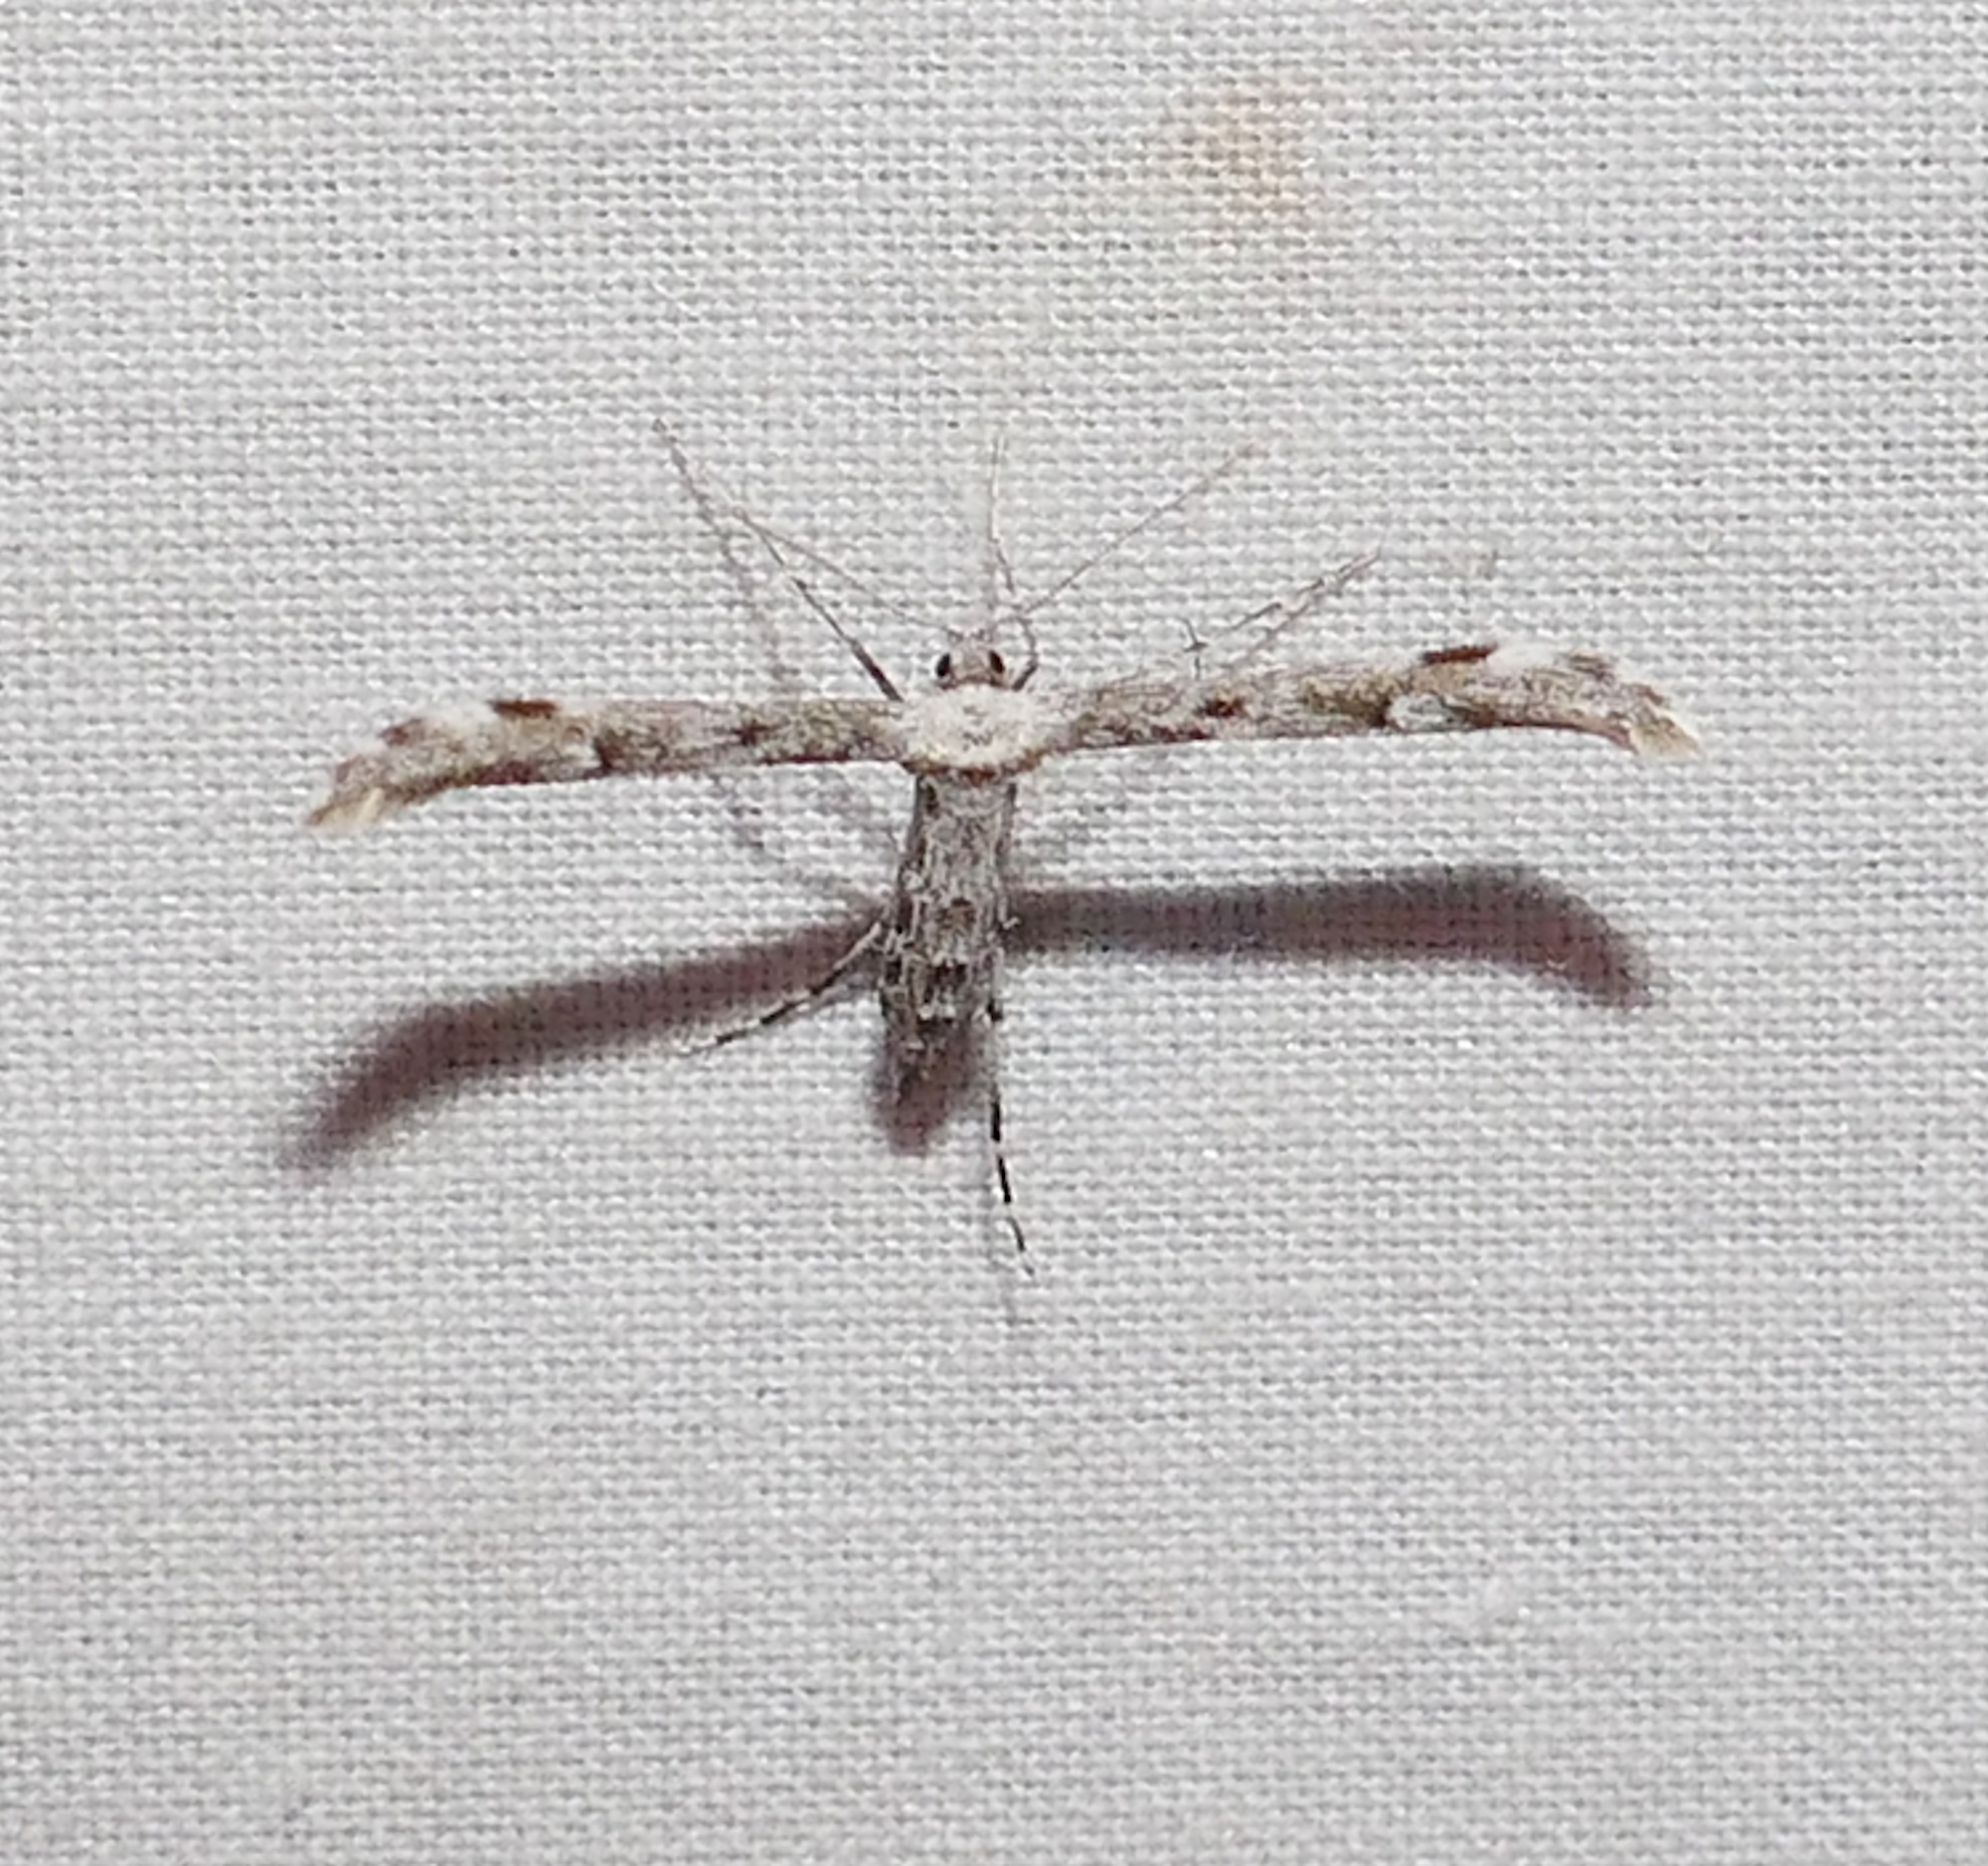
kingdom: Animalia
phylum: Arthropoda
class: Insecta
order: Lepidoptera
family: Pterophoridae
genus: Hellinsia
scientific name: Hellinsia inquinatus
